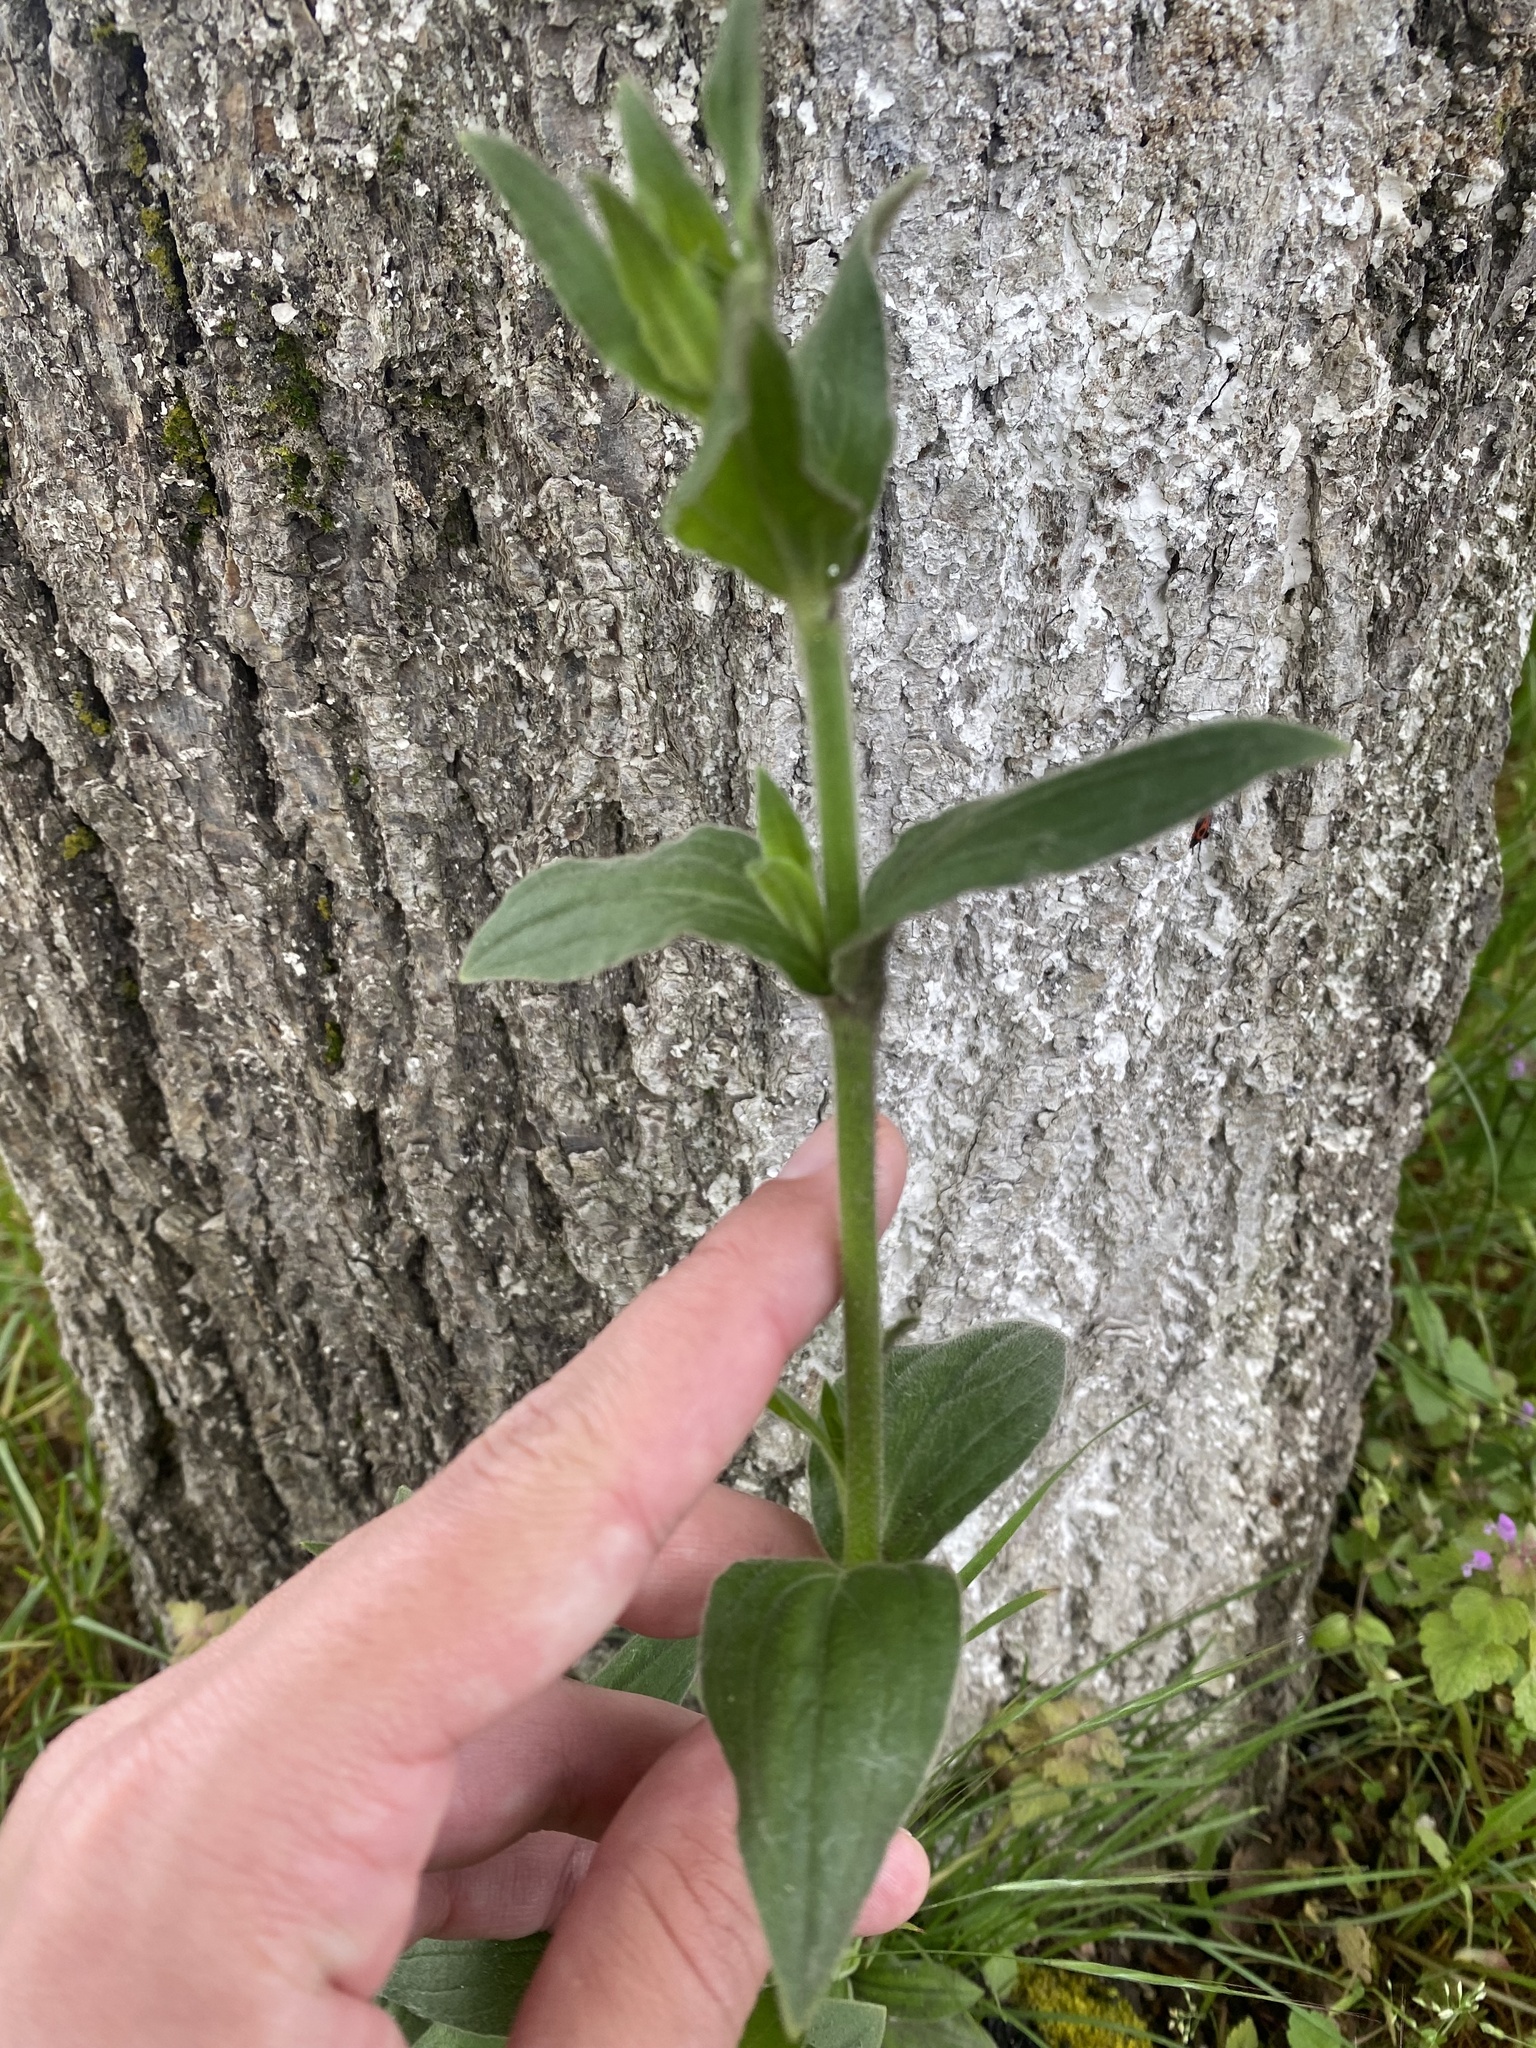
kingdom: Plantae
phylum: Tracheophyta
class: Magnoliopsida
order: Caryophyllales
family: Caryophyllaceae
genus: Silene
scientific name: Silene latifolia
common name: White campion
